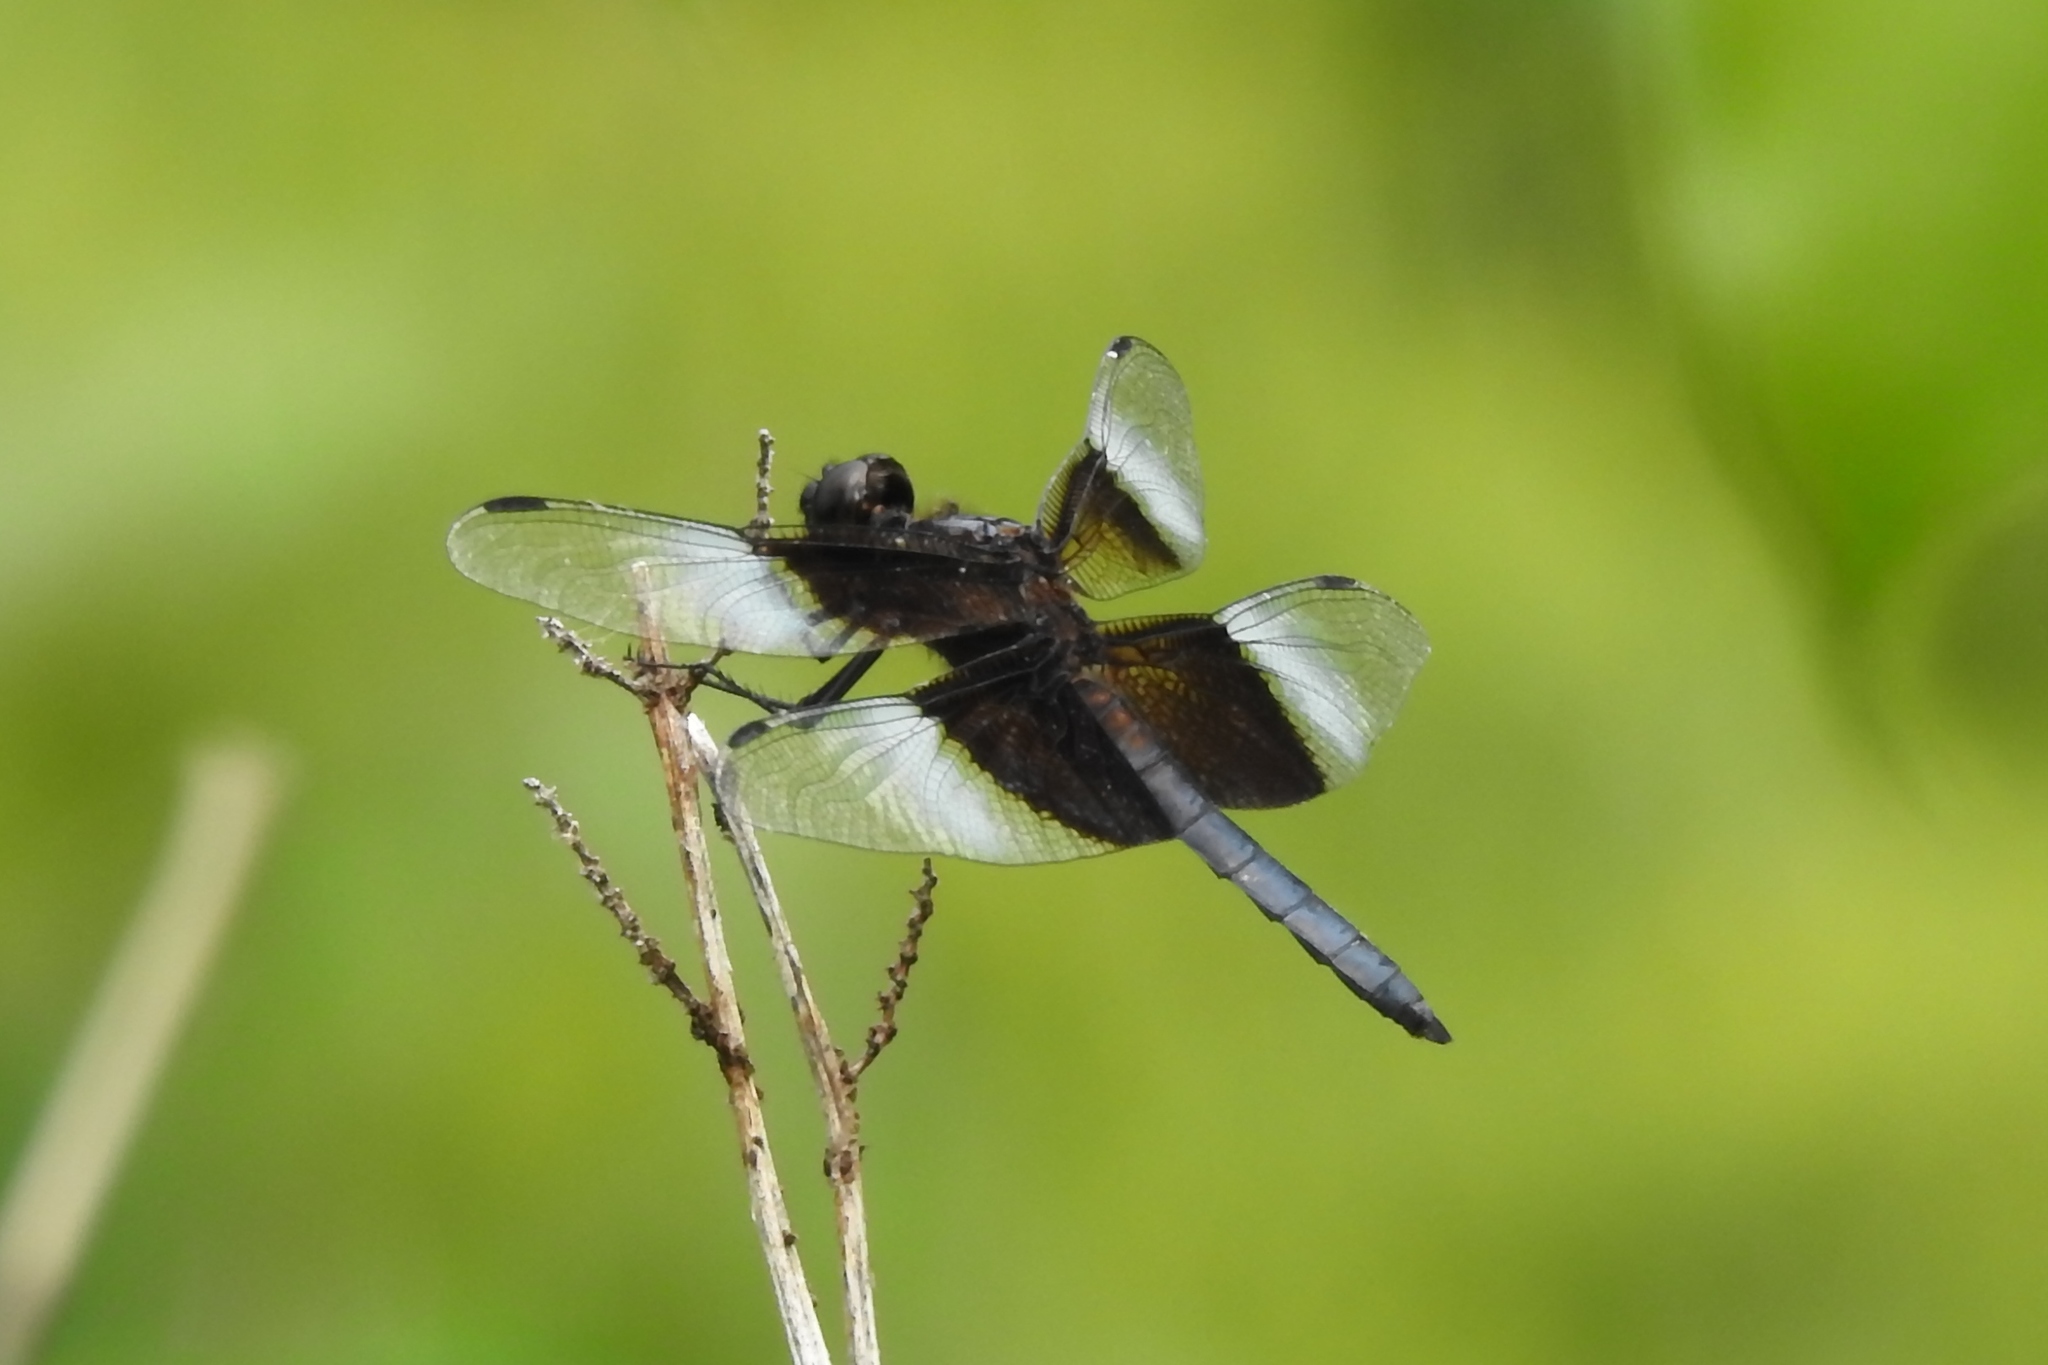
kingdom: Animalia
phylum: Arthropoda
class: Insecta
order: Odonata
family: Libellulidae
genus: Libellula
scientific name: Libellula luctuosa
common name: Widow skimmer
